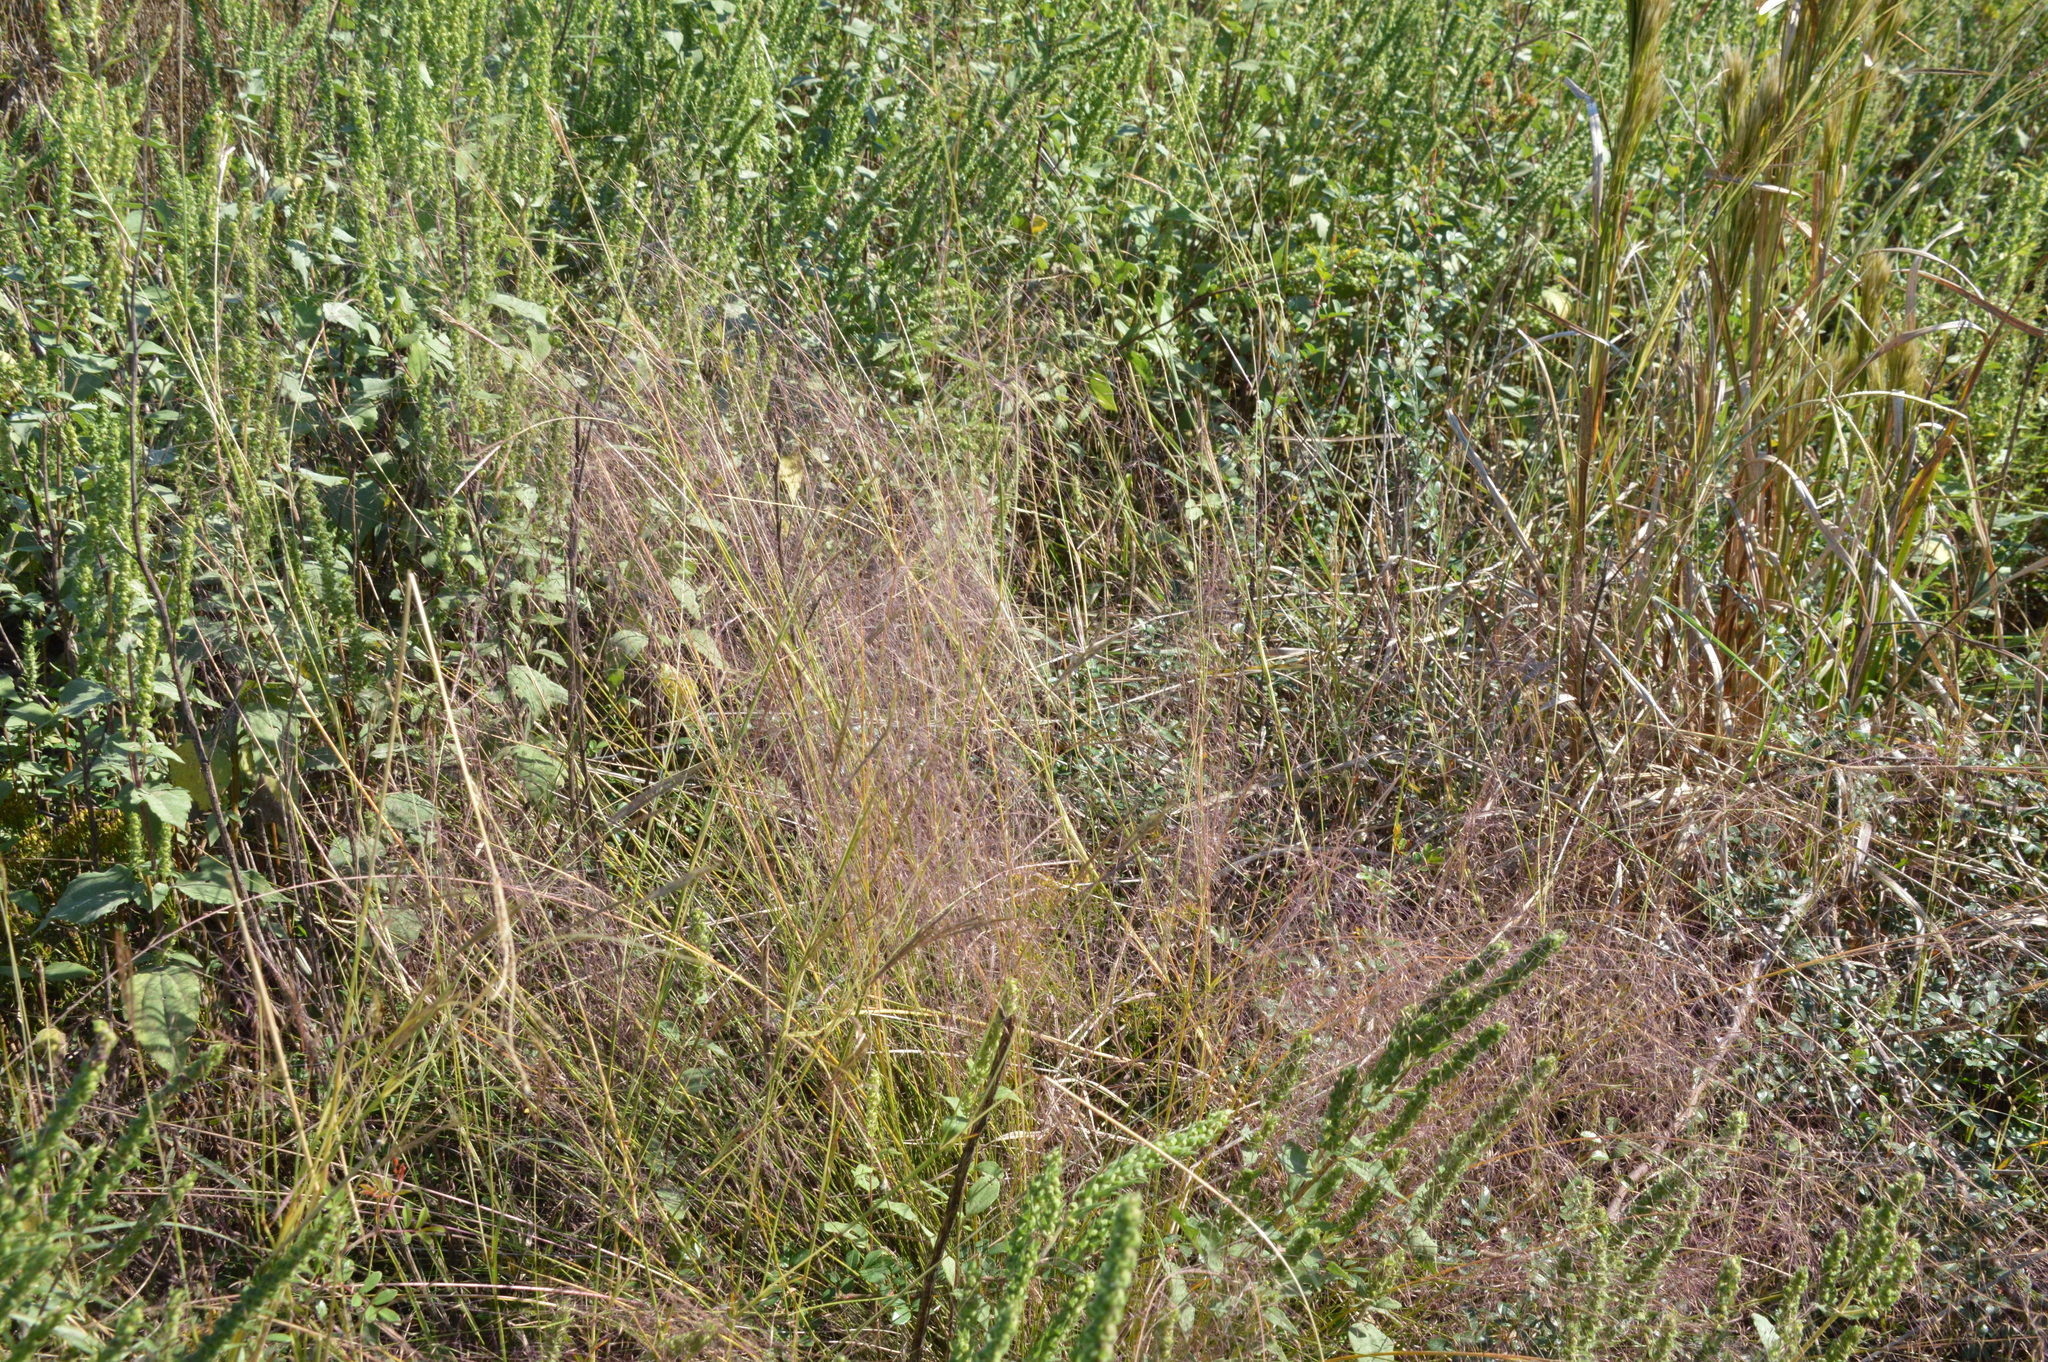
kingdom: Plantae
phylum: Tracheophyta
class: Liliopsida
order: Poales
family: Poaceae
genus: Muhlenbergia
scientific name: Muhlenbergia capillaris
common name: Purple grass
